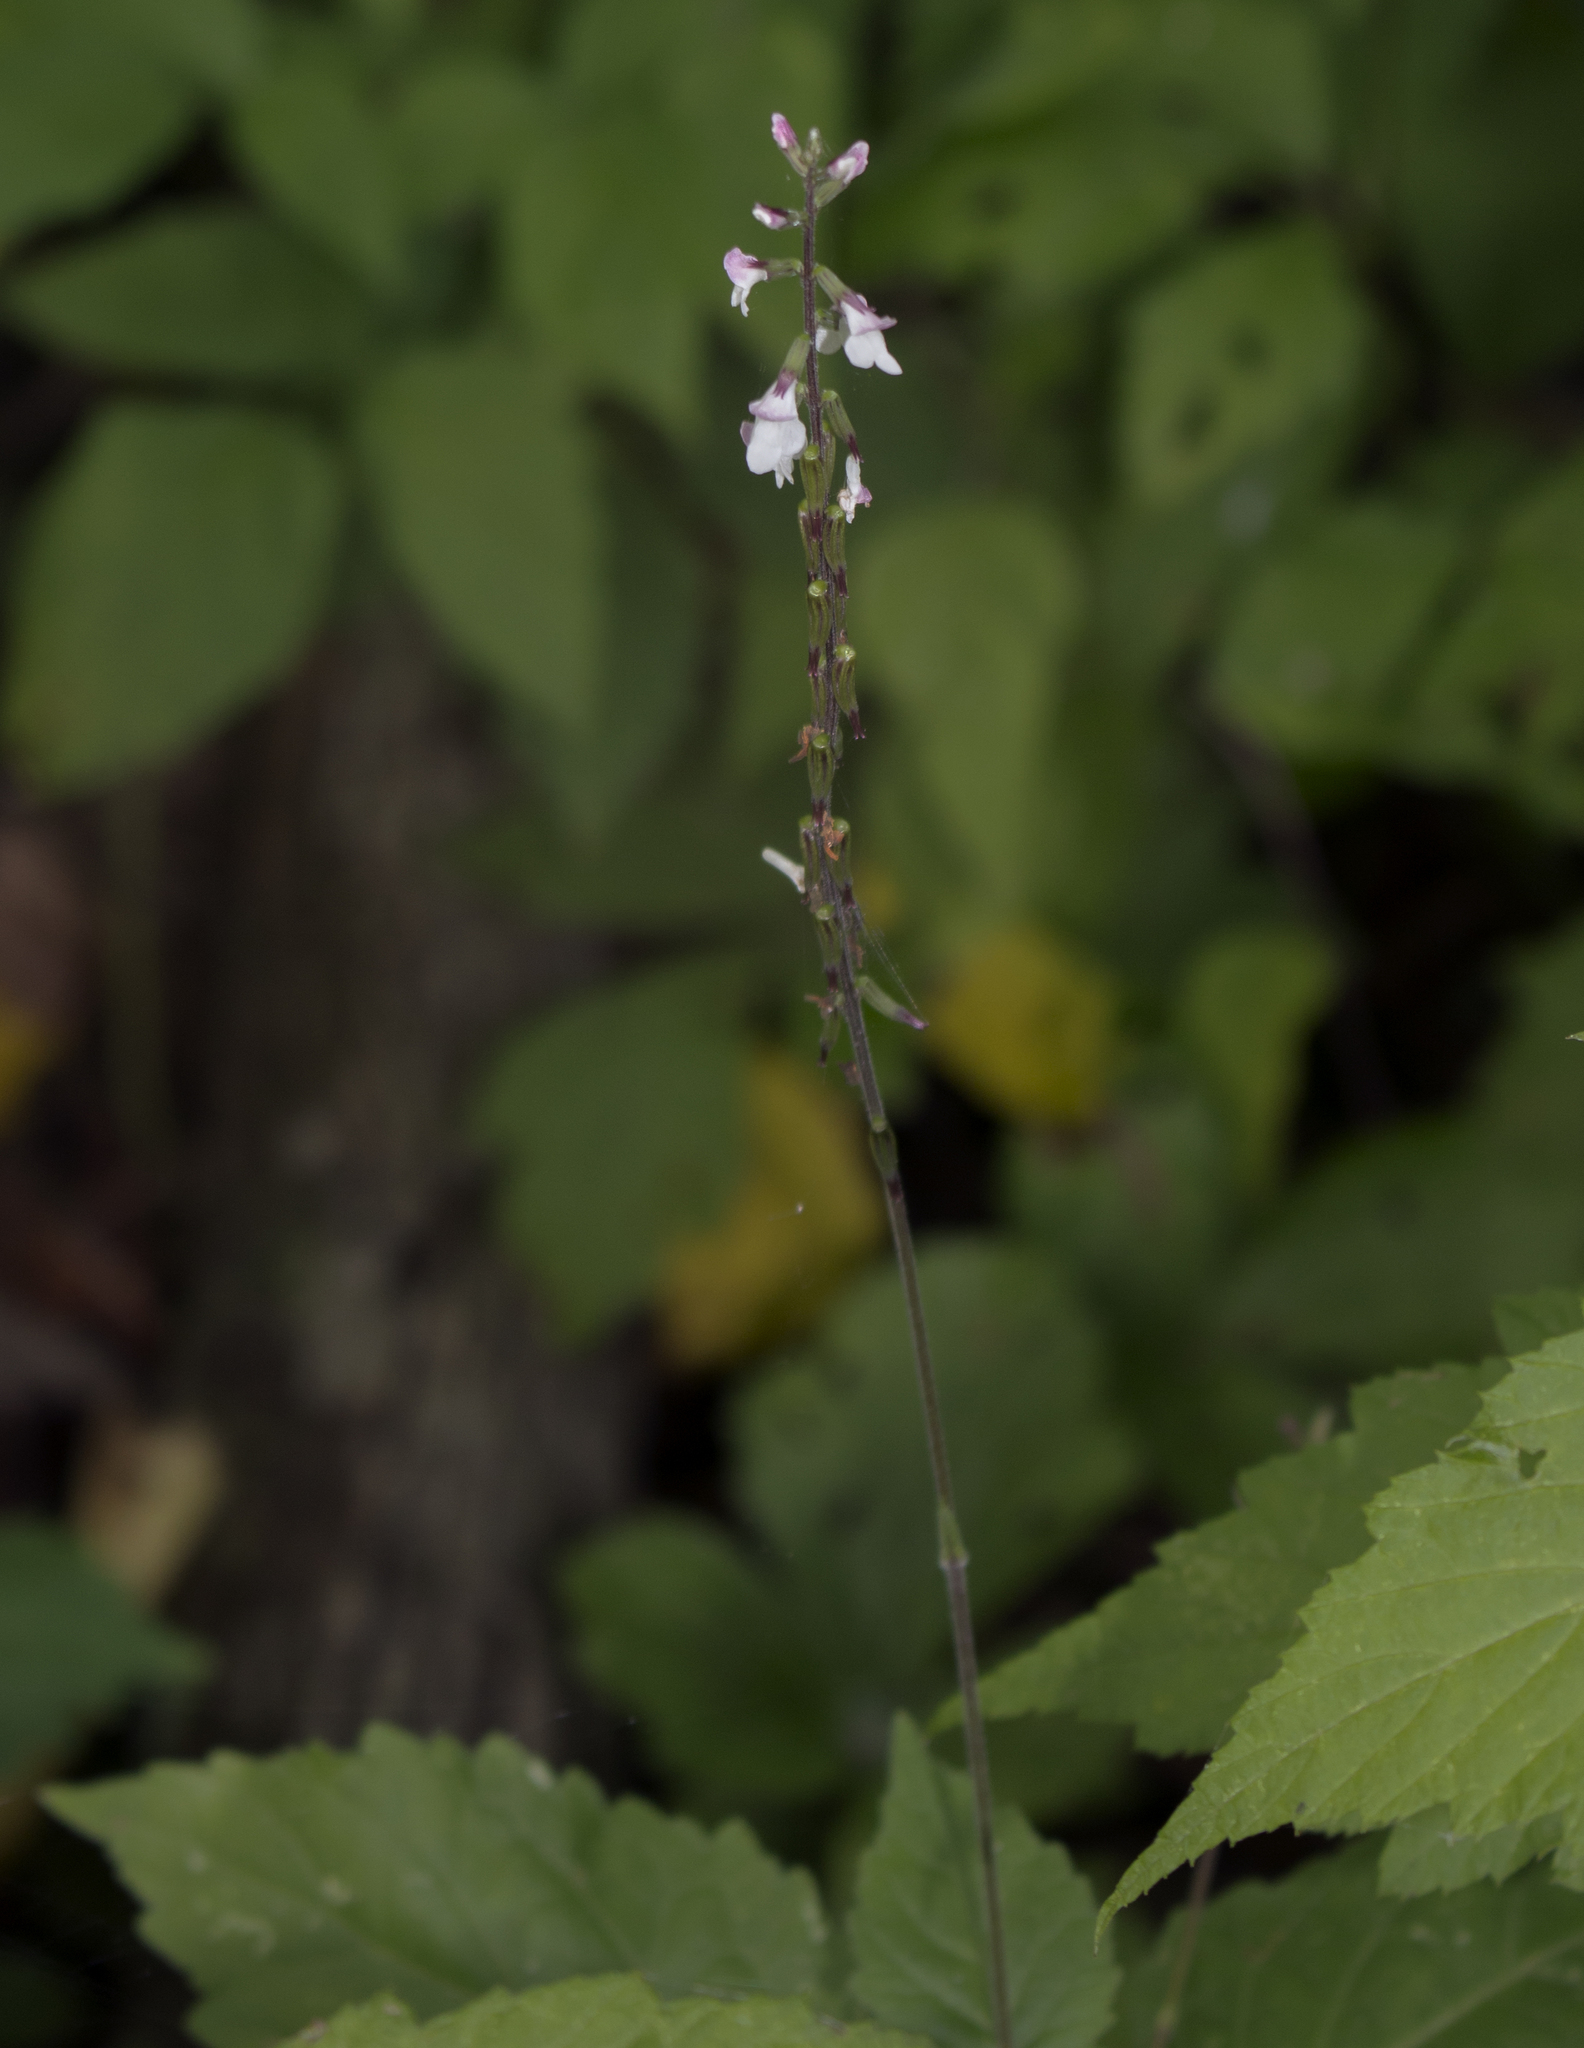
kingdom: Plantae
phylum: Tracheophyta
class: Magnoliopsida
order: Lamiales
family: Phrymaceae
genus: Phryma
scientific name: Phryma leptostachya
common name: American lopseed
